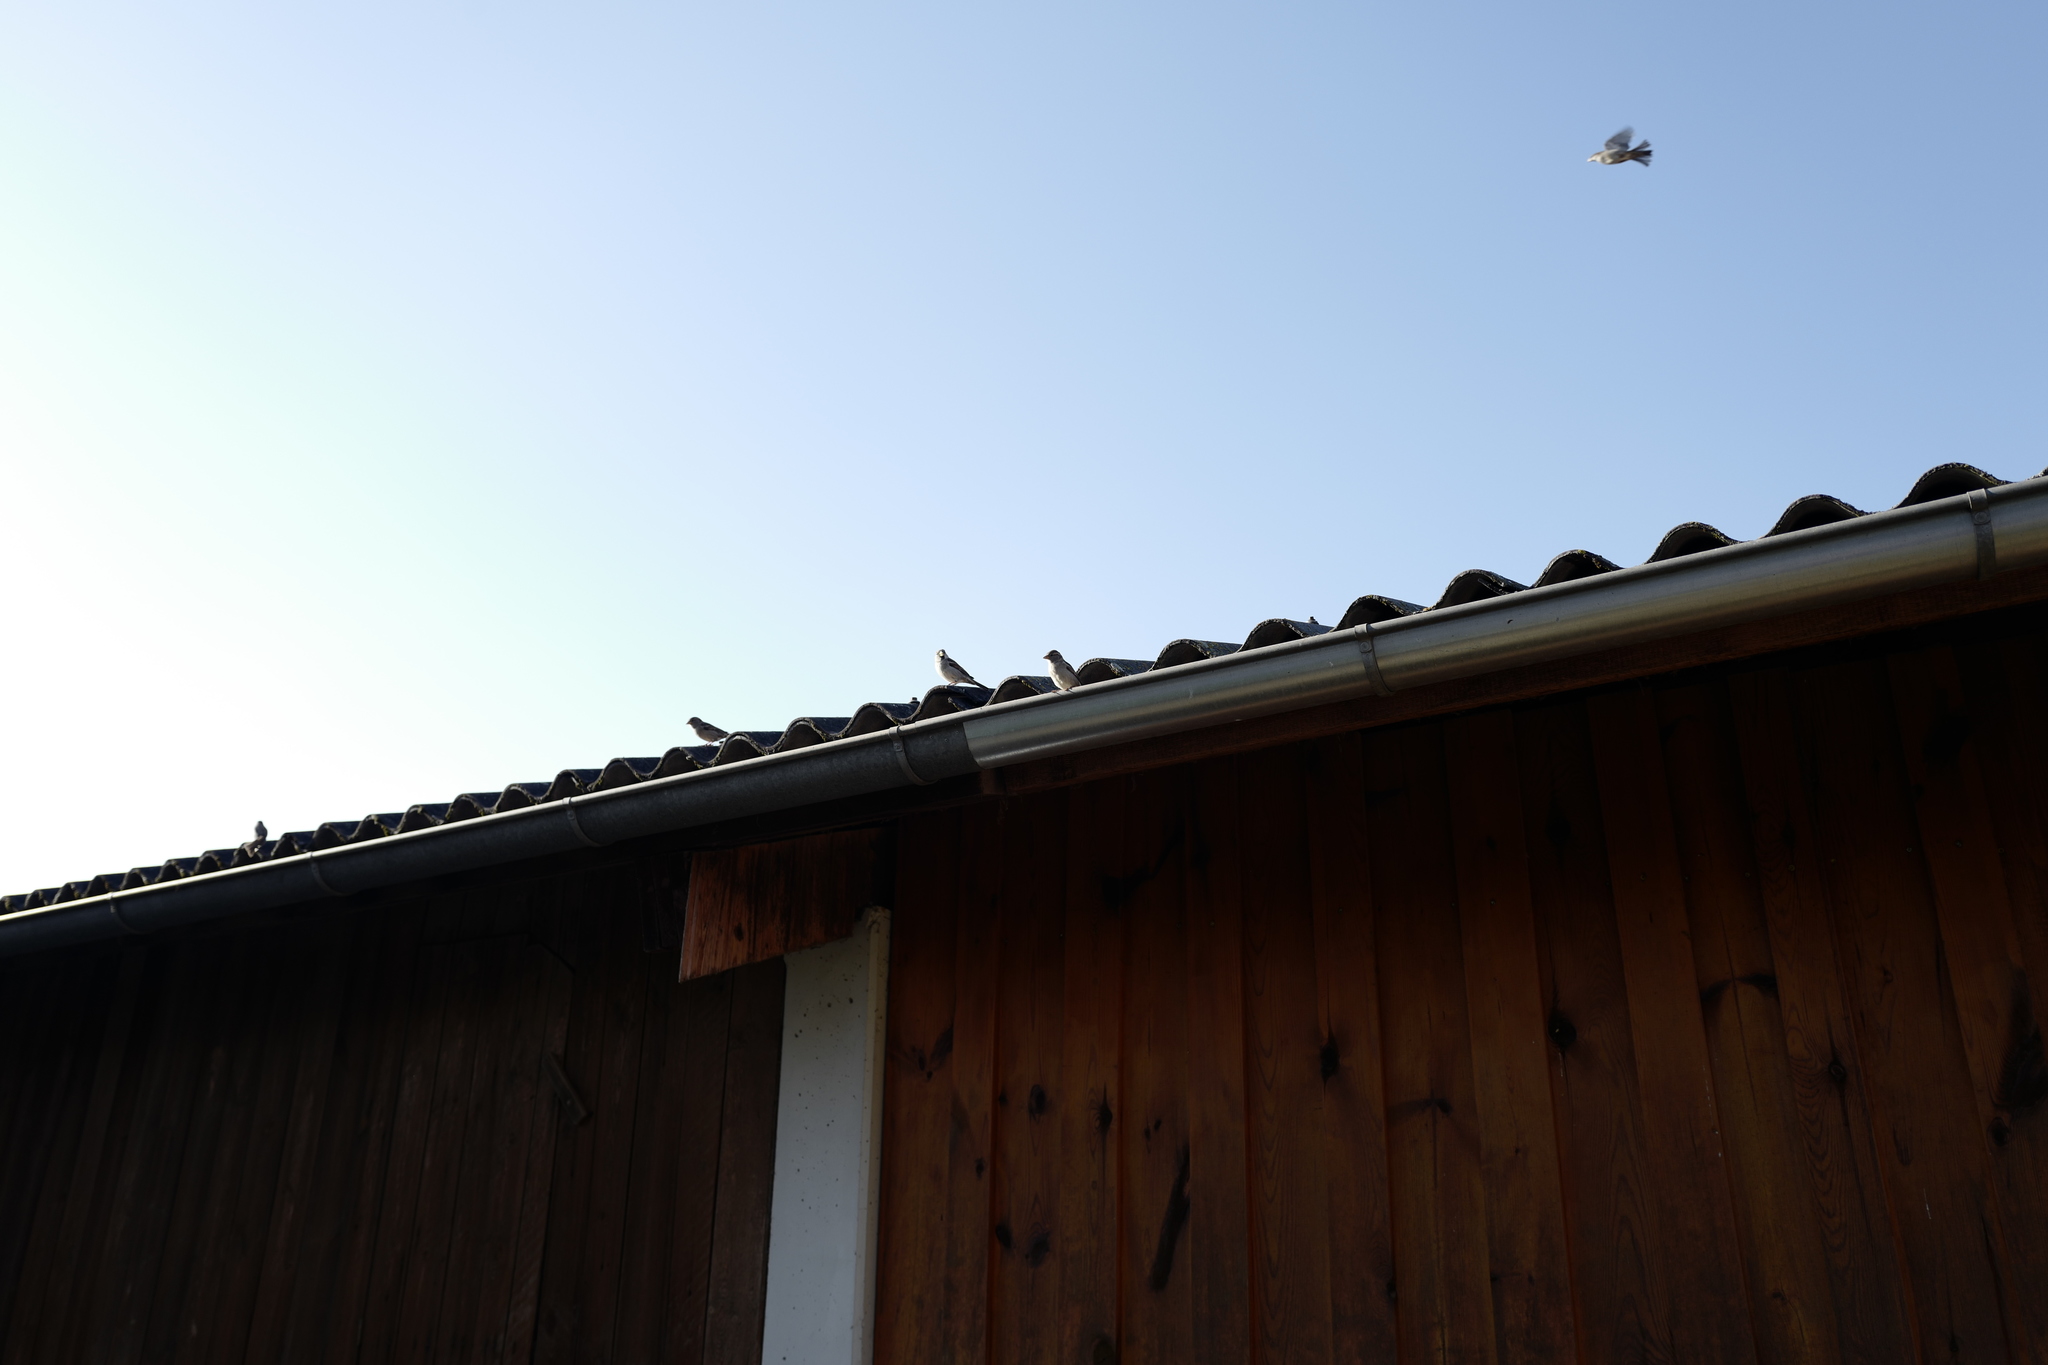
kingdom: Animalia
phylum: Chordata
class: Aves
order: Passeriformes
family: Passeridae
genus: Passer
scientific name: Passer domesticus
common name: House sparrow
